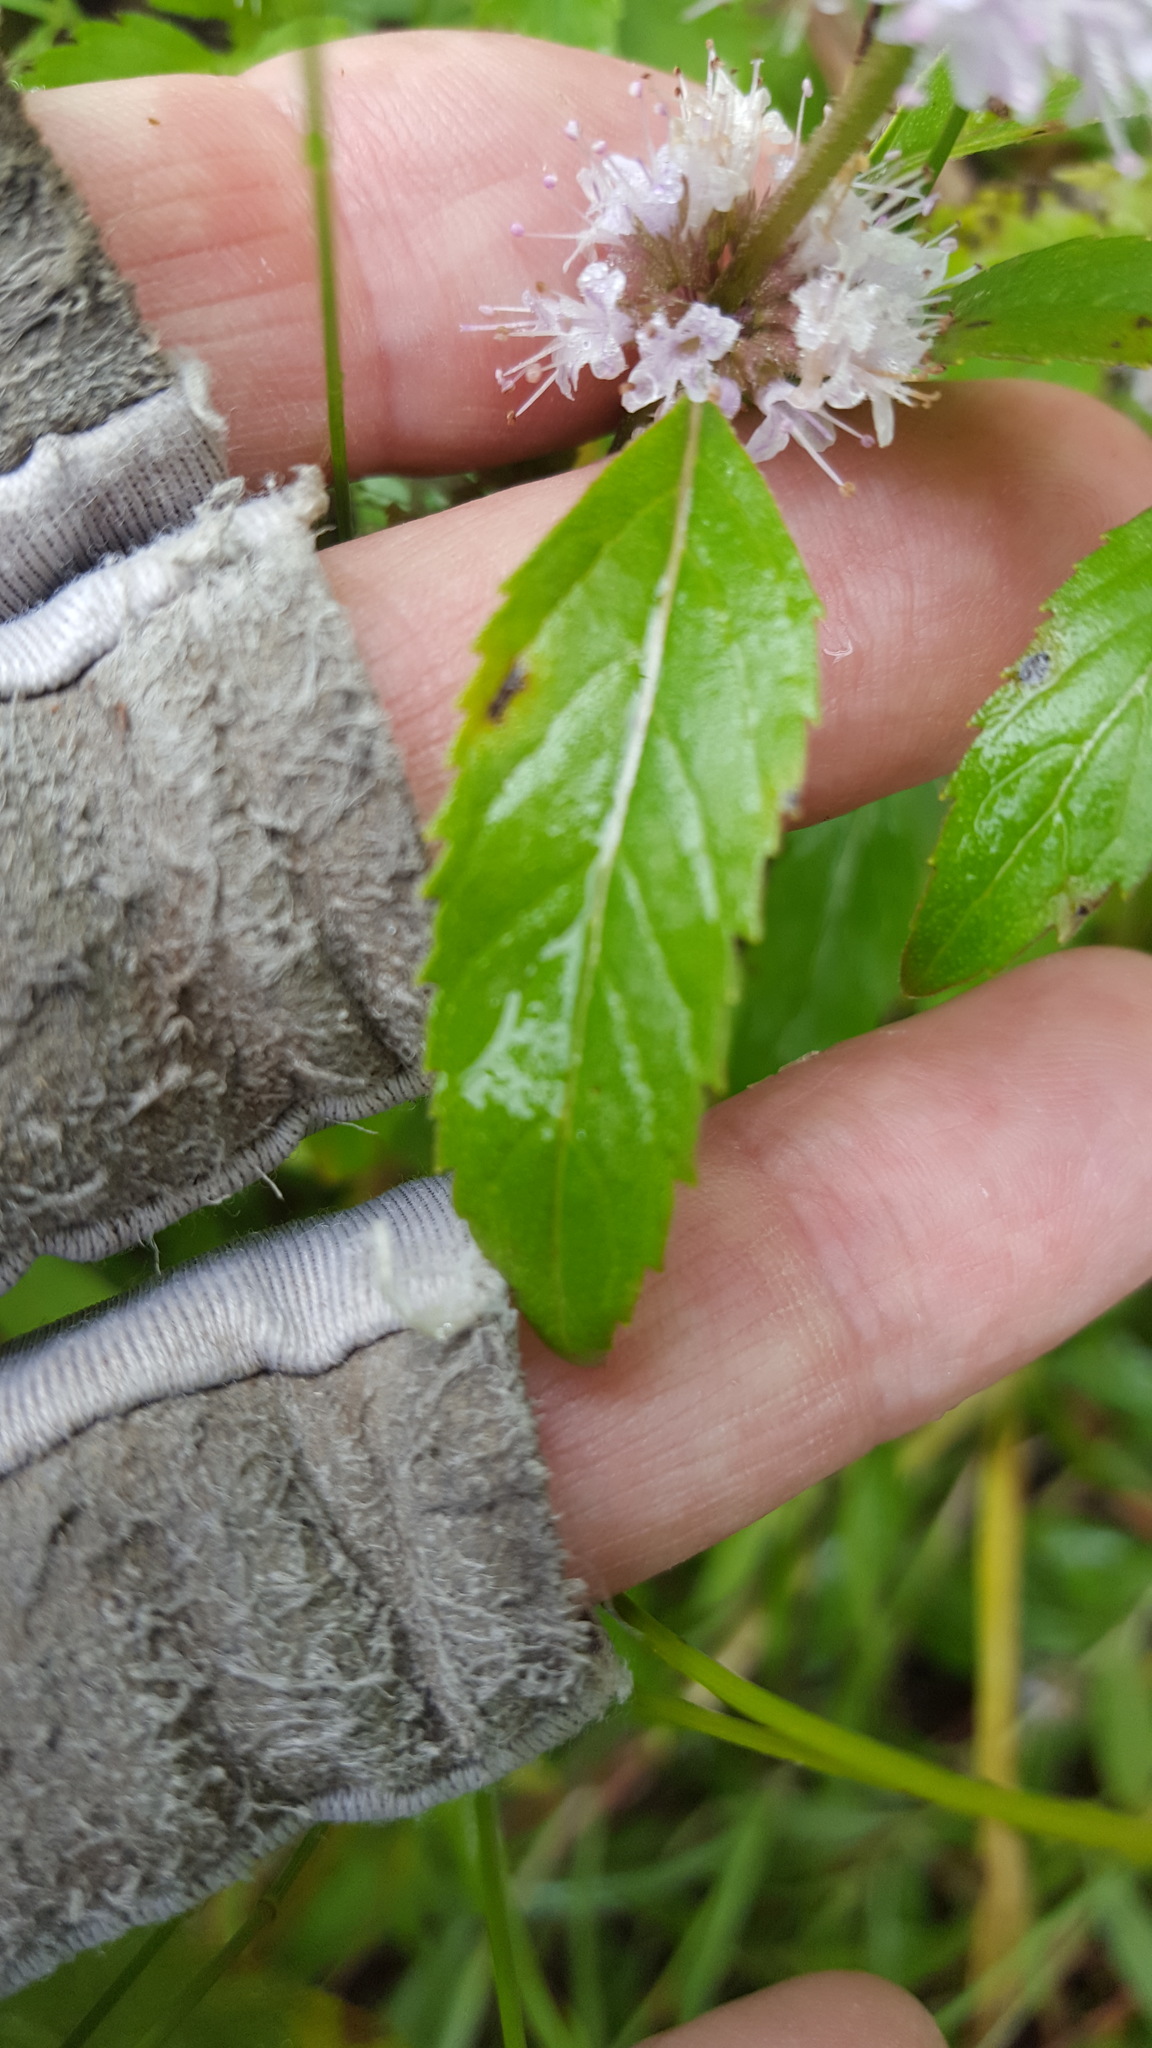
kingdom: Plantae
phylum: Tracheophyta
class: Magnoliopsida
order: Lamiales
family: Lamiaceae
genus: Mentha
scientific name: Mentha arvensis
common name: Corn mint
